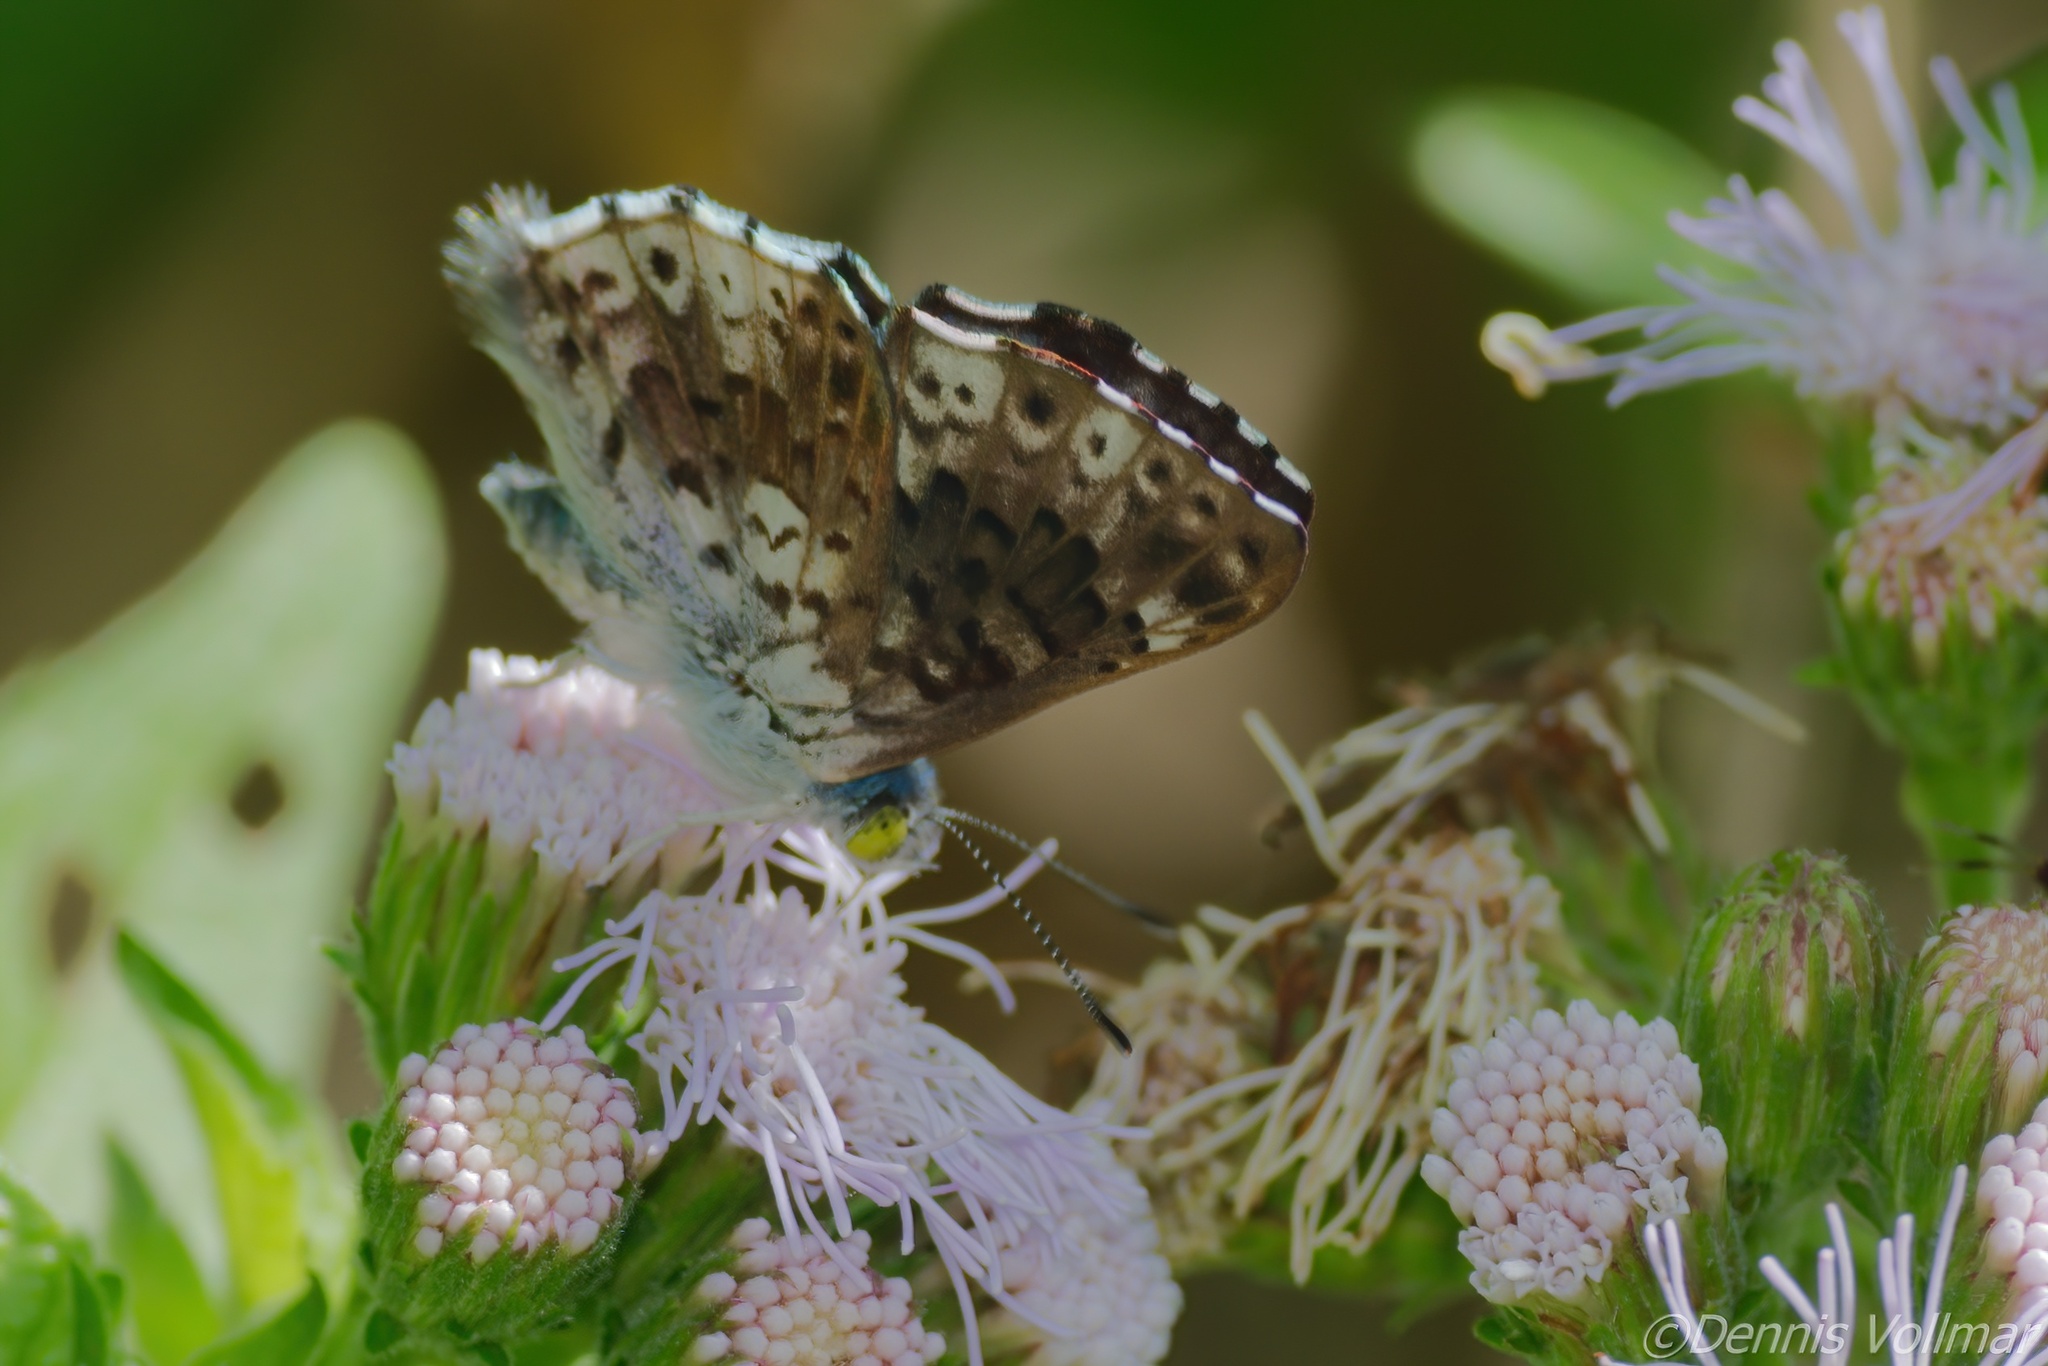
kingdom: Animalia
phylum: Arthropoda
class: Insecta
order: Lepidoptera
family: Riodinidae
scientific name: Riodinidae
